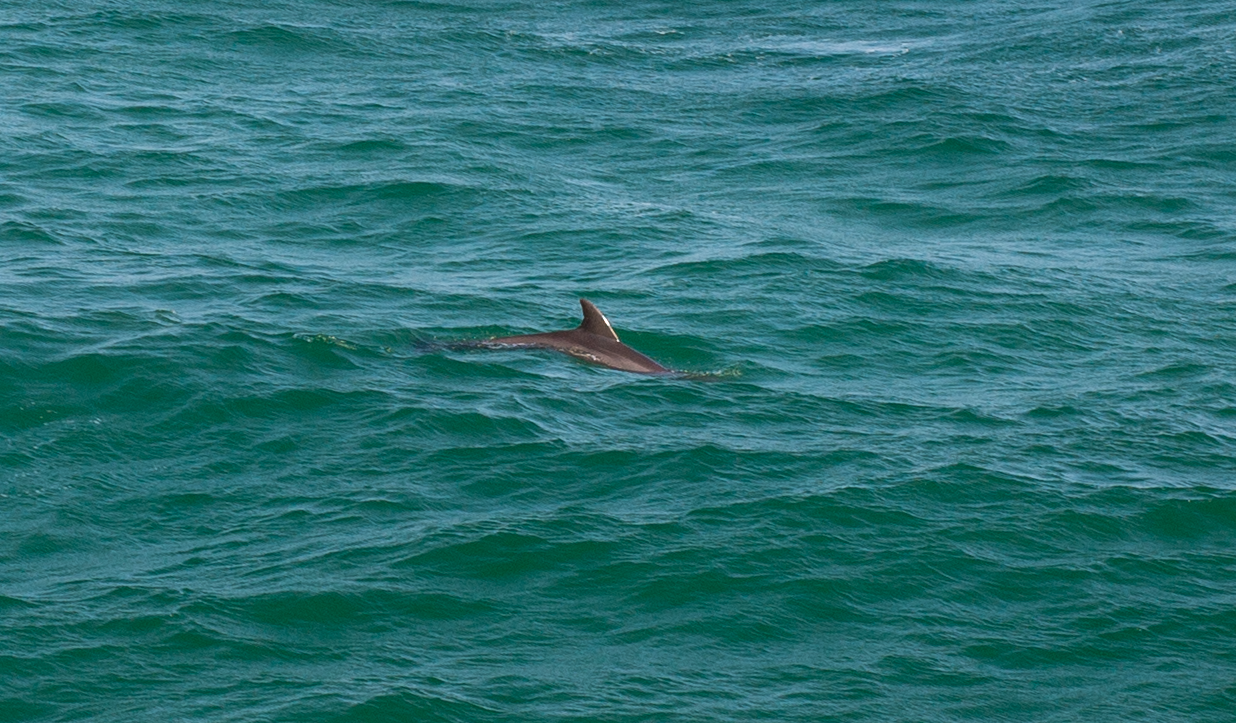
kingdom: Animalia
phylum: Chordata
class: Mammalia
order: Cetacea
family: Delphinidae
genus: Tursiops
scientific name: Tursiops truncatus
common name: Bottlenose dolphin
